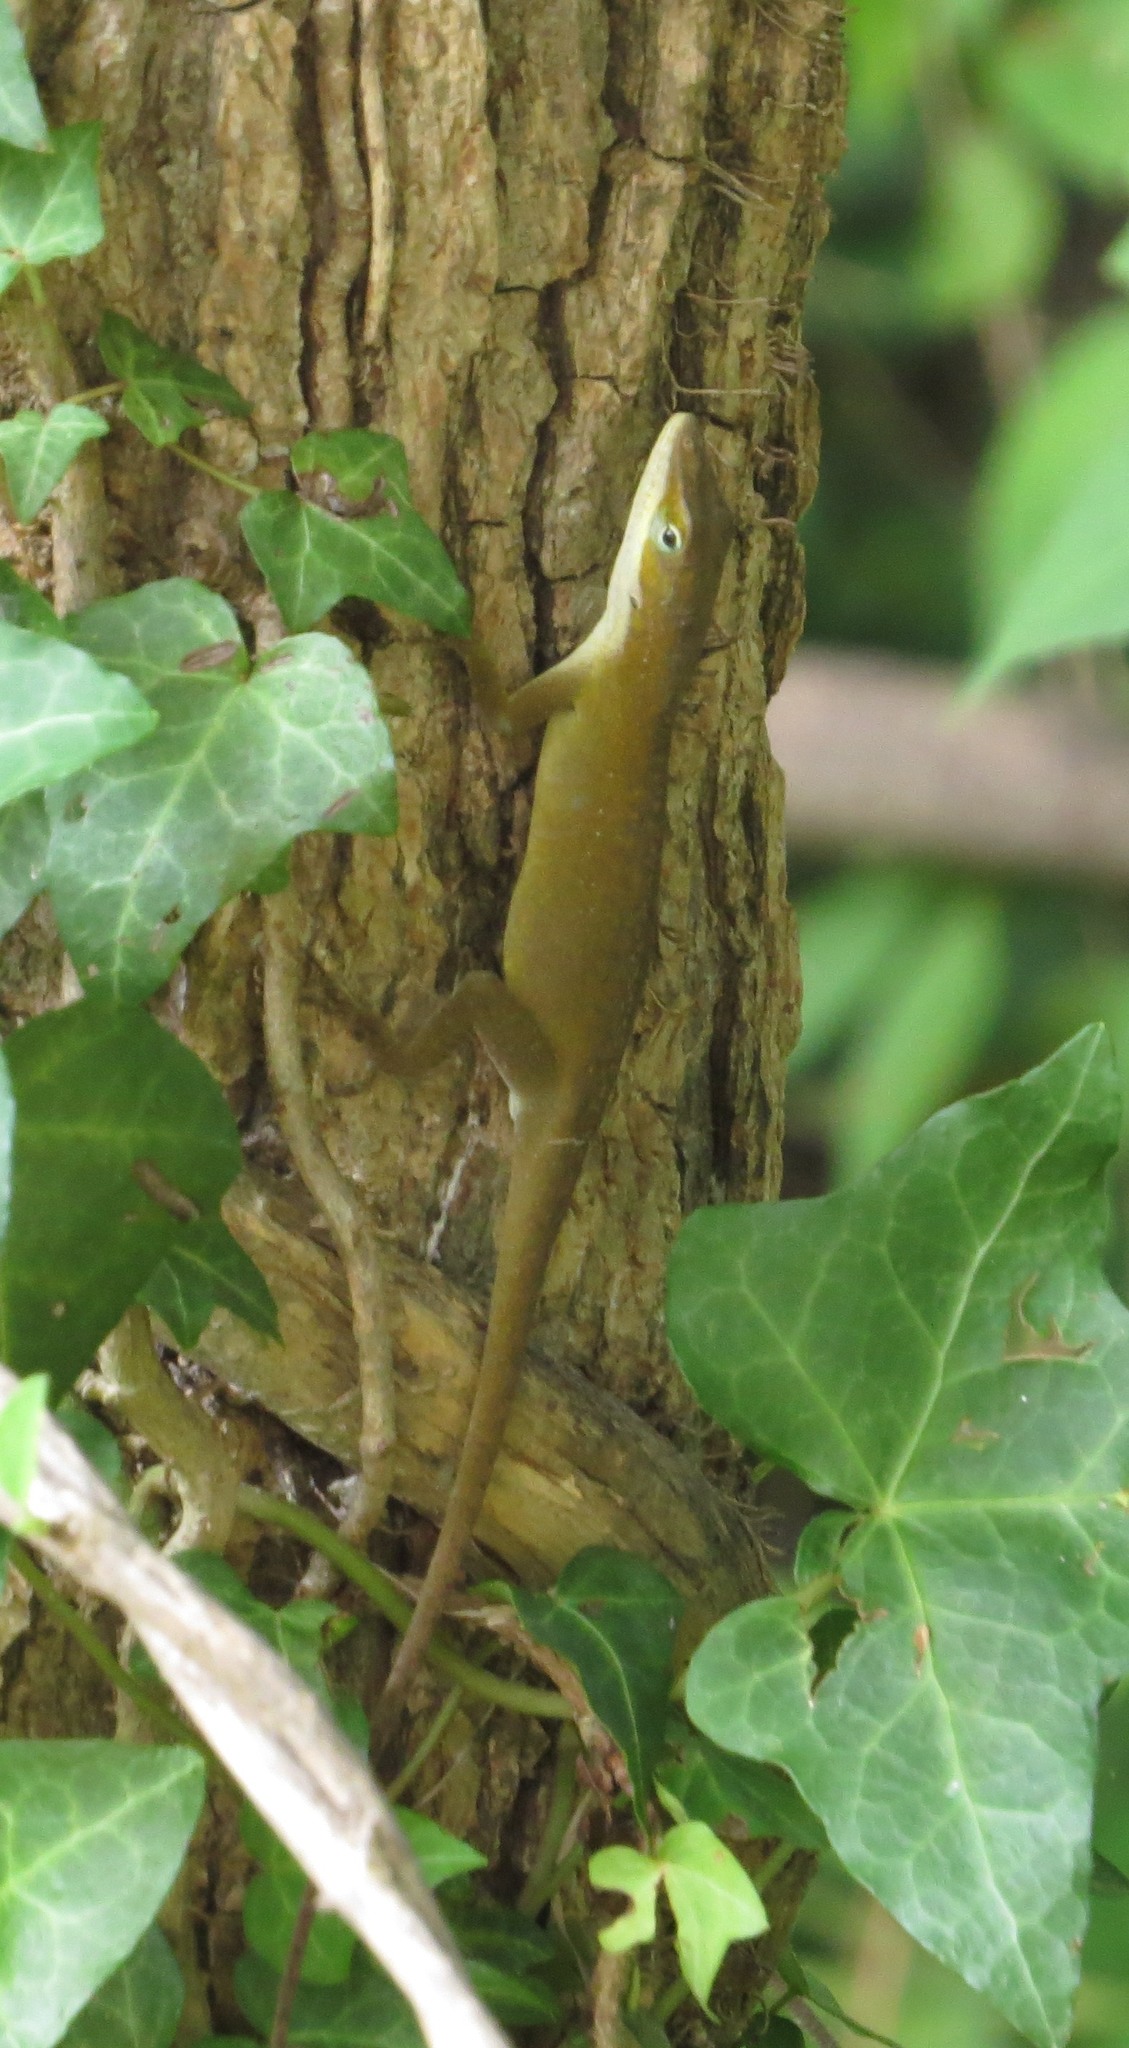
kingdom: Animalia
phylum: Chordata
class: Squamata
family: Dactyloidae
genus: Anolis
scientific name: Anolis carolinensis
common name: Green anole
